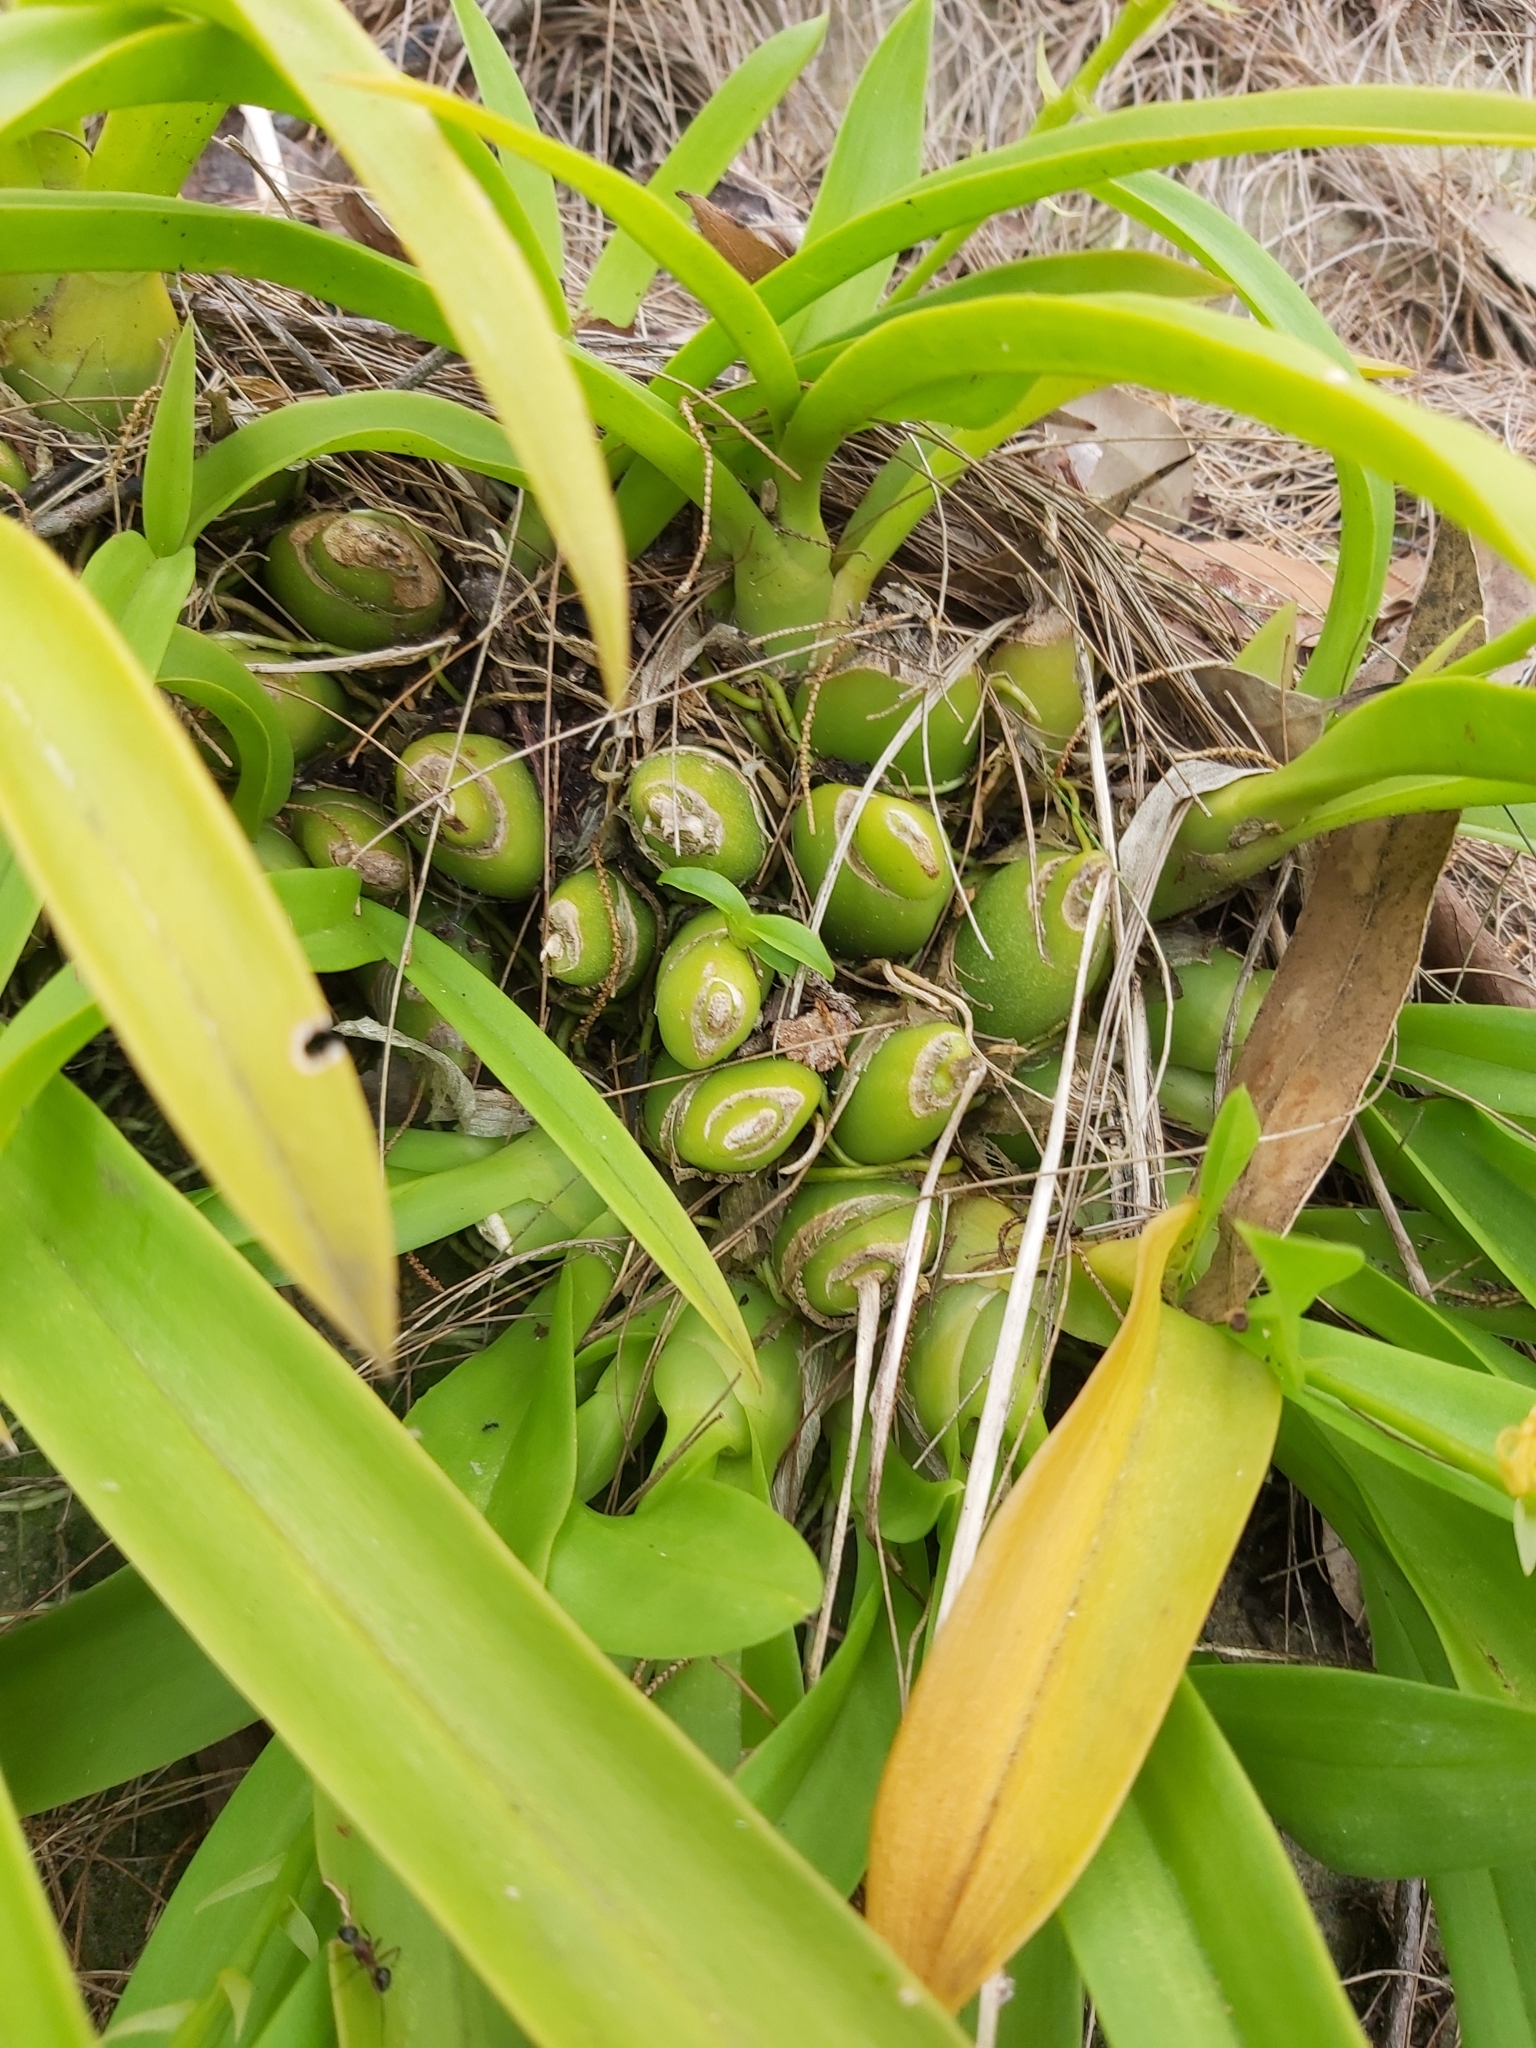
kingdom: Plantae
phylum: Tracheophyta
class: Liliopsida
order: Asparagales
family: Orchidaceae
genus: Liparis
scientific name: Liparis reflexa
